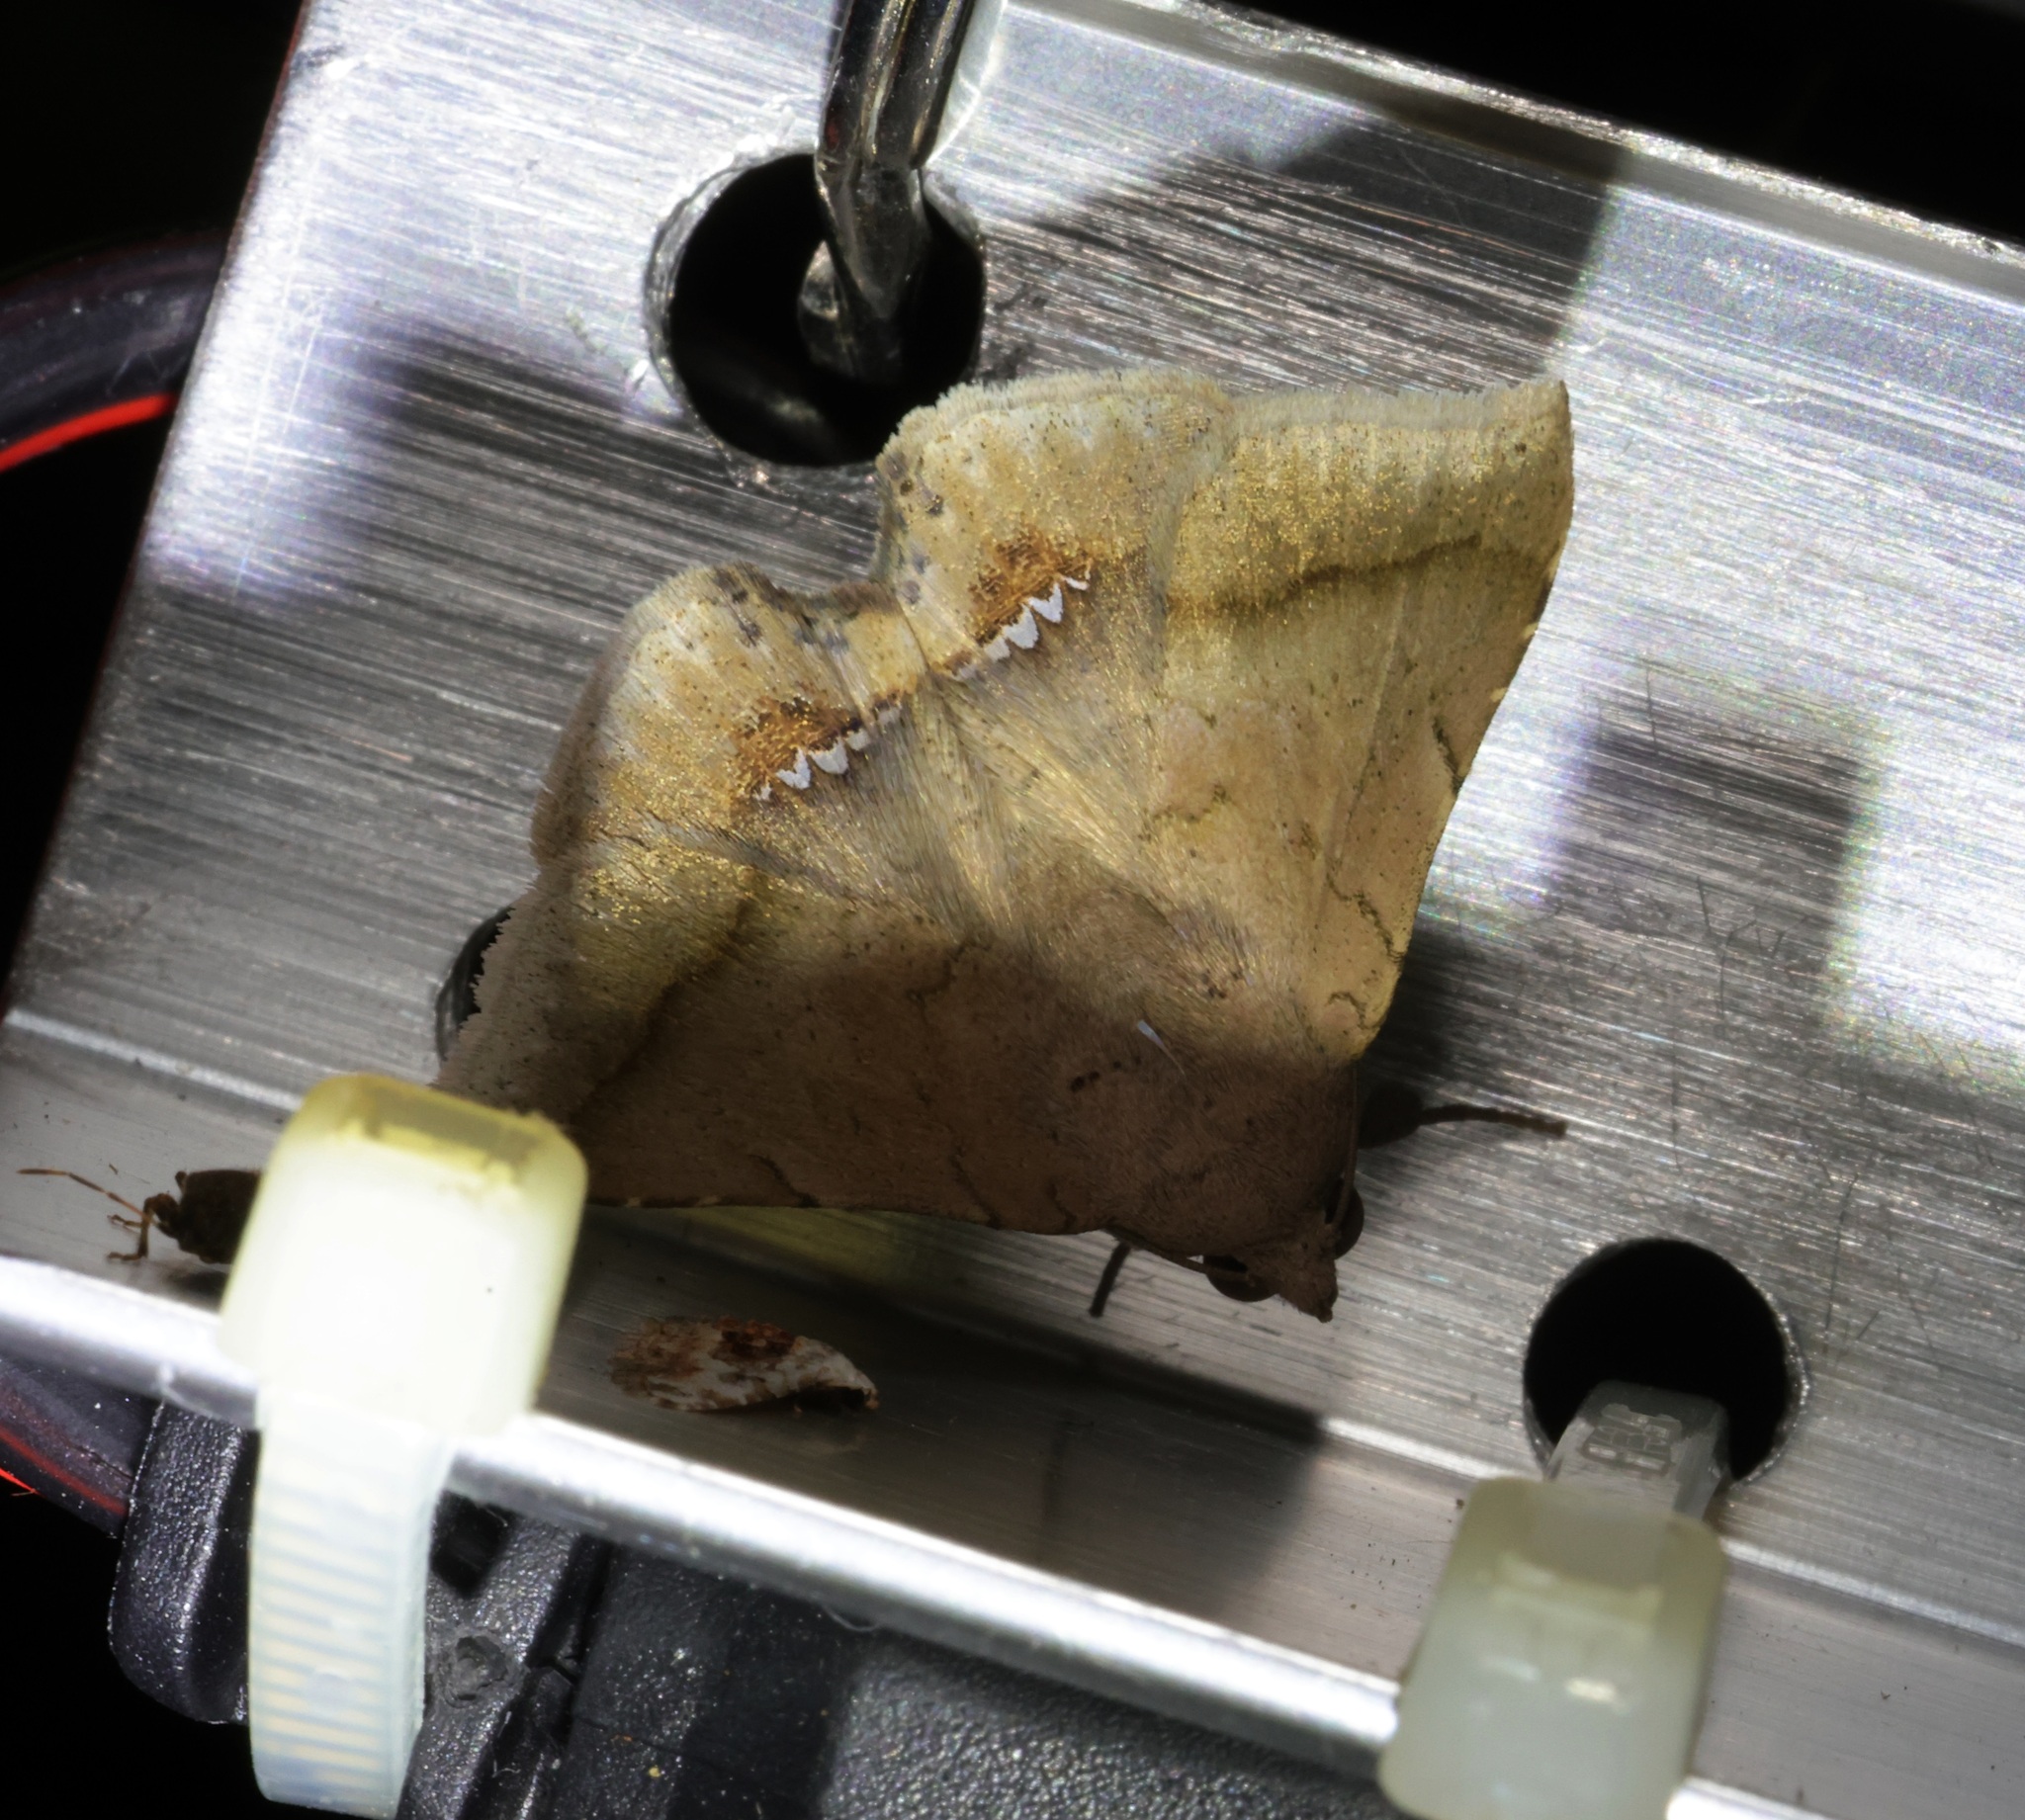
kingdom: Animalia
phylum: Arthropoda
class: Insecta
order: Lepidoptera
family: Erebidae
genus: Macaldenia
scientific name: Macaldenia palumba
